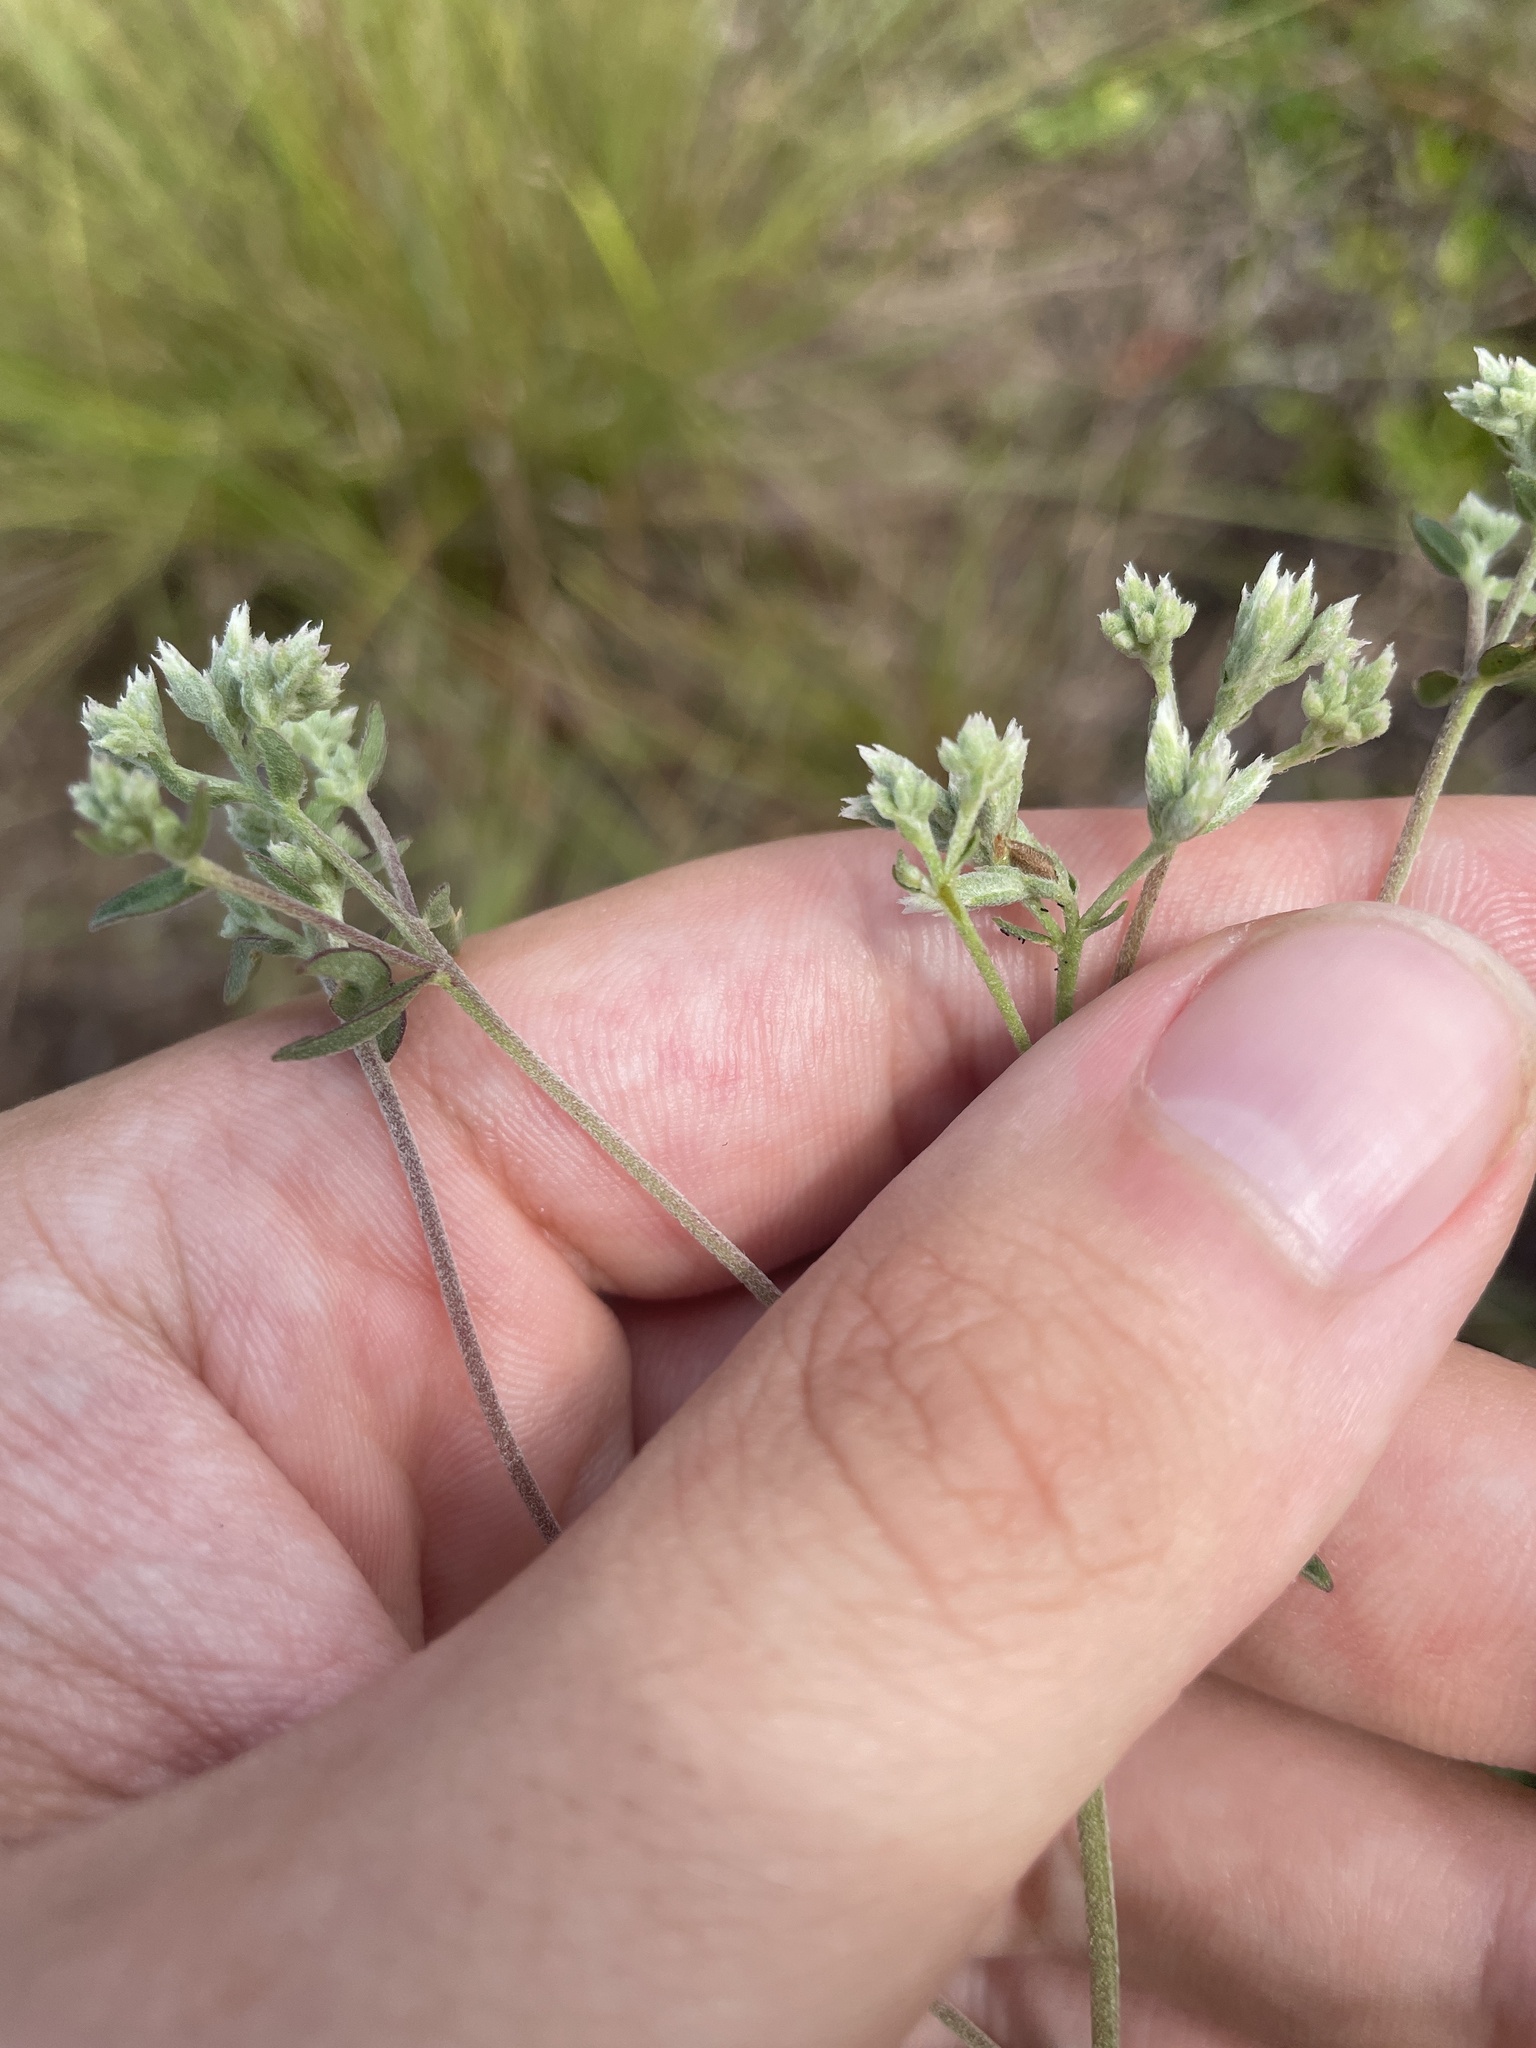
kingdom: Plantae
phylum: Tracheophyta
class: Magnoliopsida
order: Asterales
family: Asteraceae
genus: Eupatorium
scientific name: Eupatorium mohrii
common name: Mohr's thoroughwort
